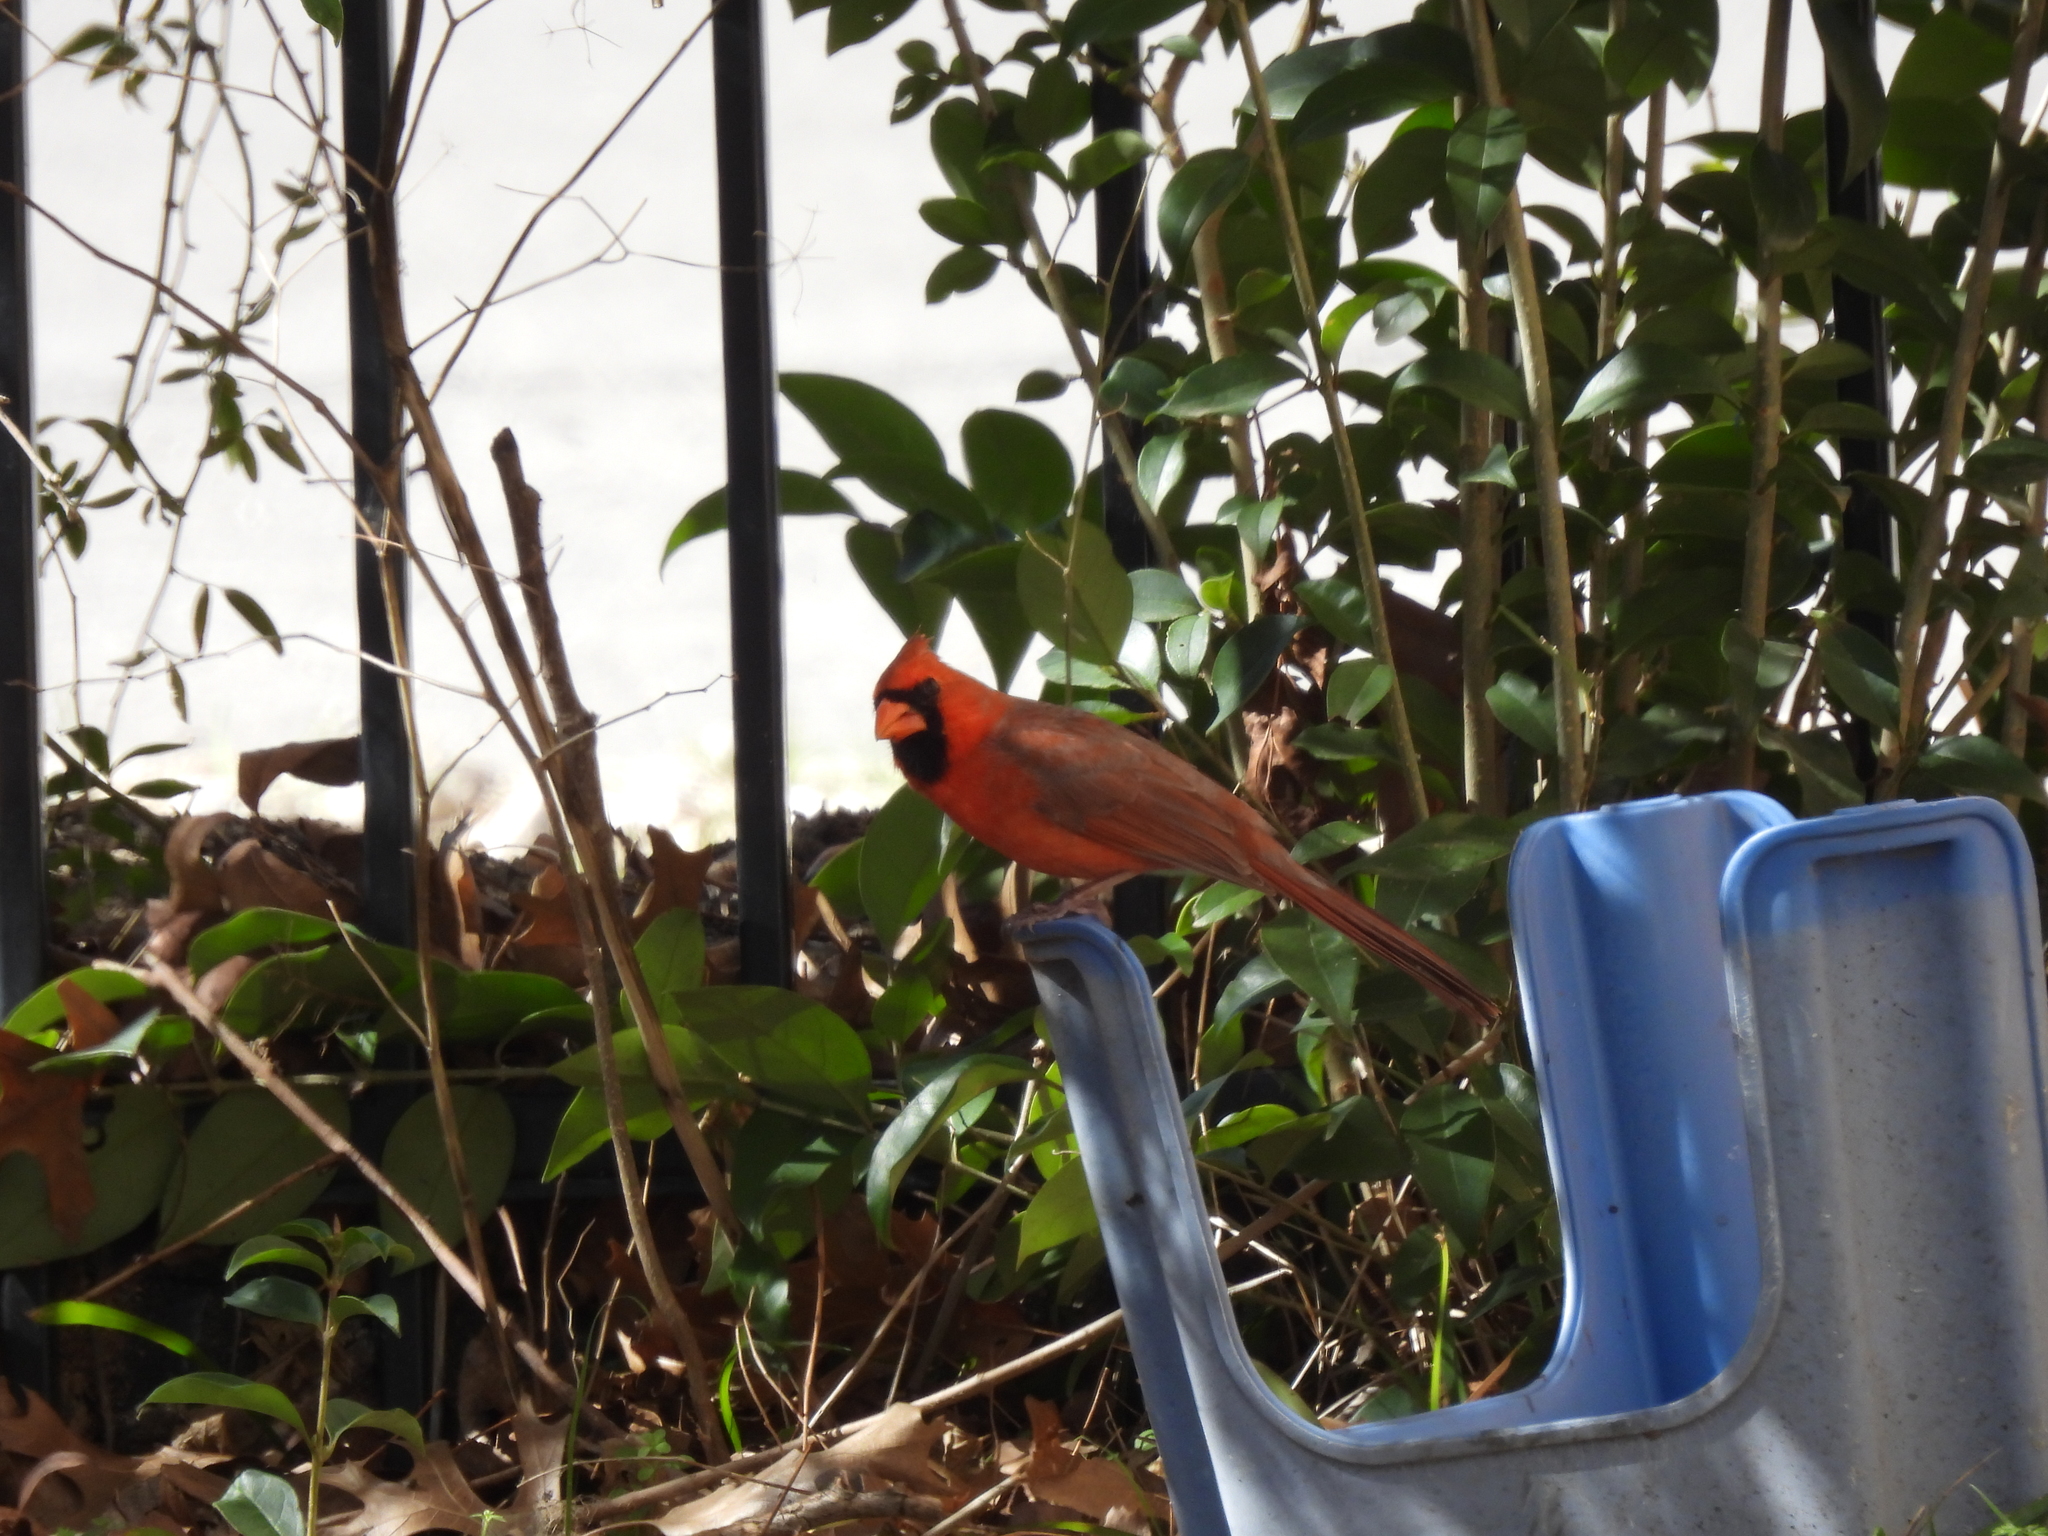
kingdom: Animalia
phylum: Chordata
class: Aves
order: Passeriformes
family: Cardinalidae
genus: Cardinalis
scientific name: Cardinalis cardinalis
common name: Northern cardinal
